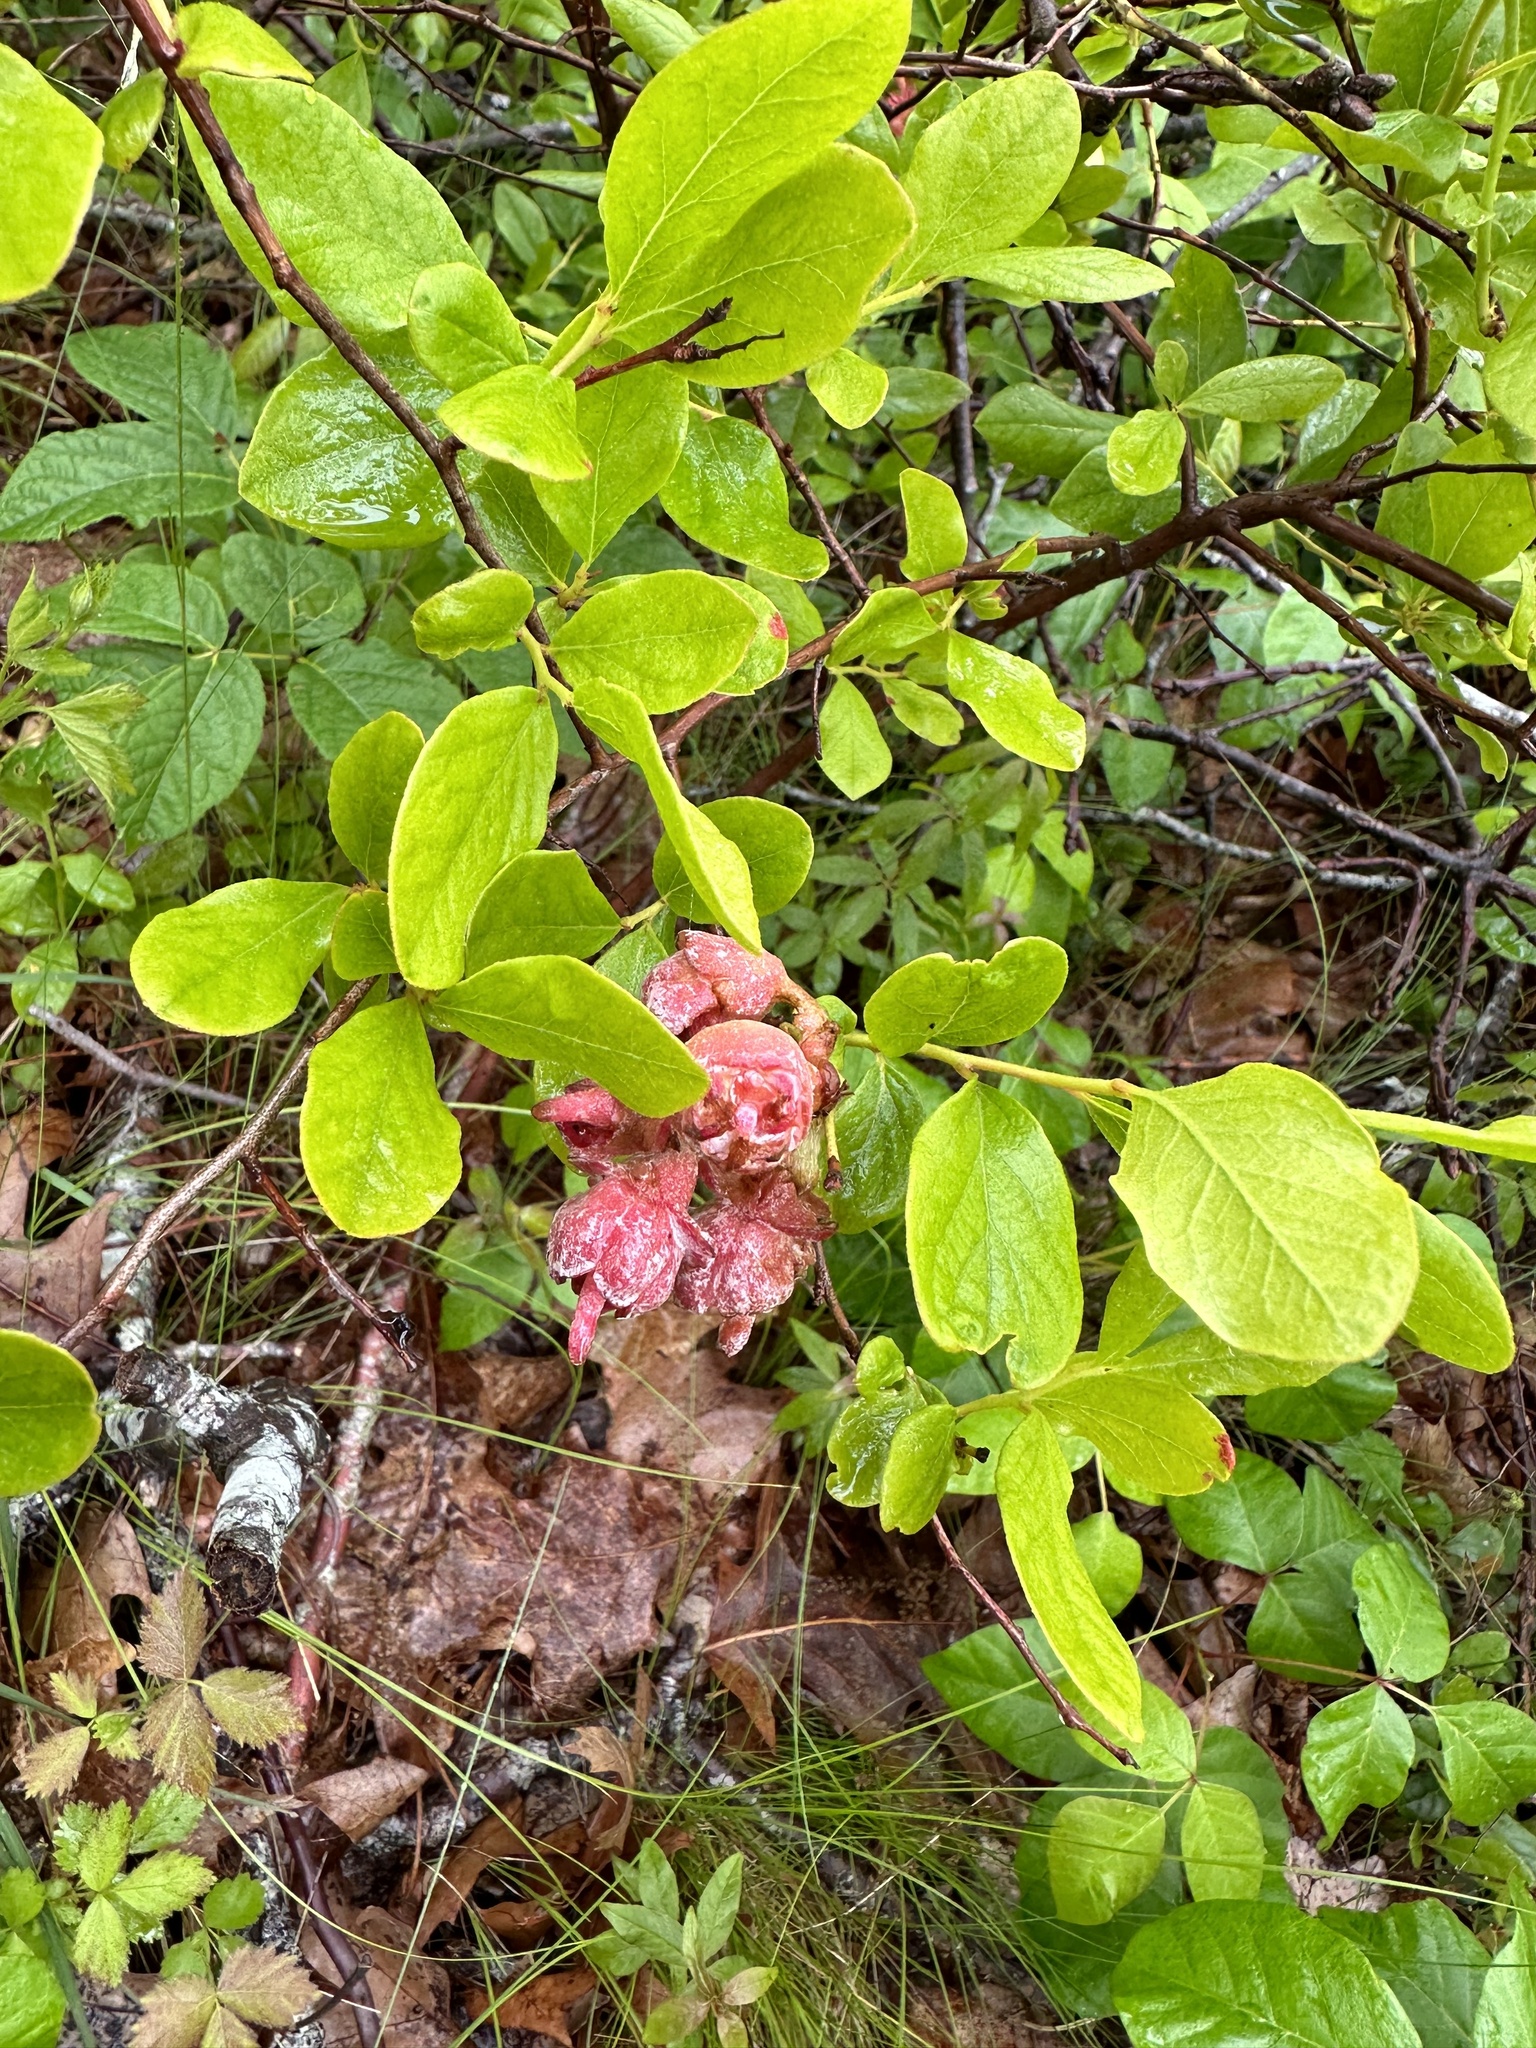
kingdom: Plantae
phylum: Tracheophyta
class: Magnoliopsida
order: Ericales
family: Ericaceae
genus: Gaylussacia
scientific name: Gaylussacia baccata
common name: Black huckleberry
